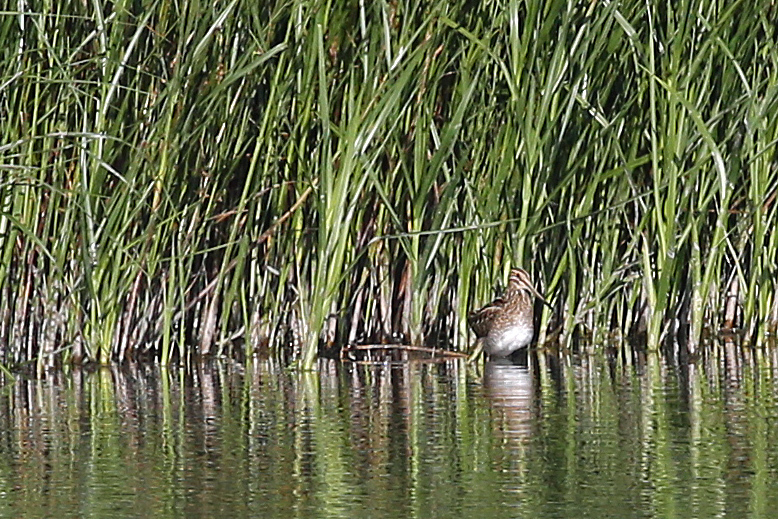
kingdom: Animalia
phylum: Chordata
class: Aves
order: Charadriiformes
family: Scolopacidae
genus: Gallinago
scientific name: Gallinago gallinago
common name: Common snipe
